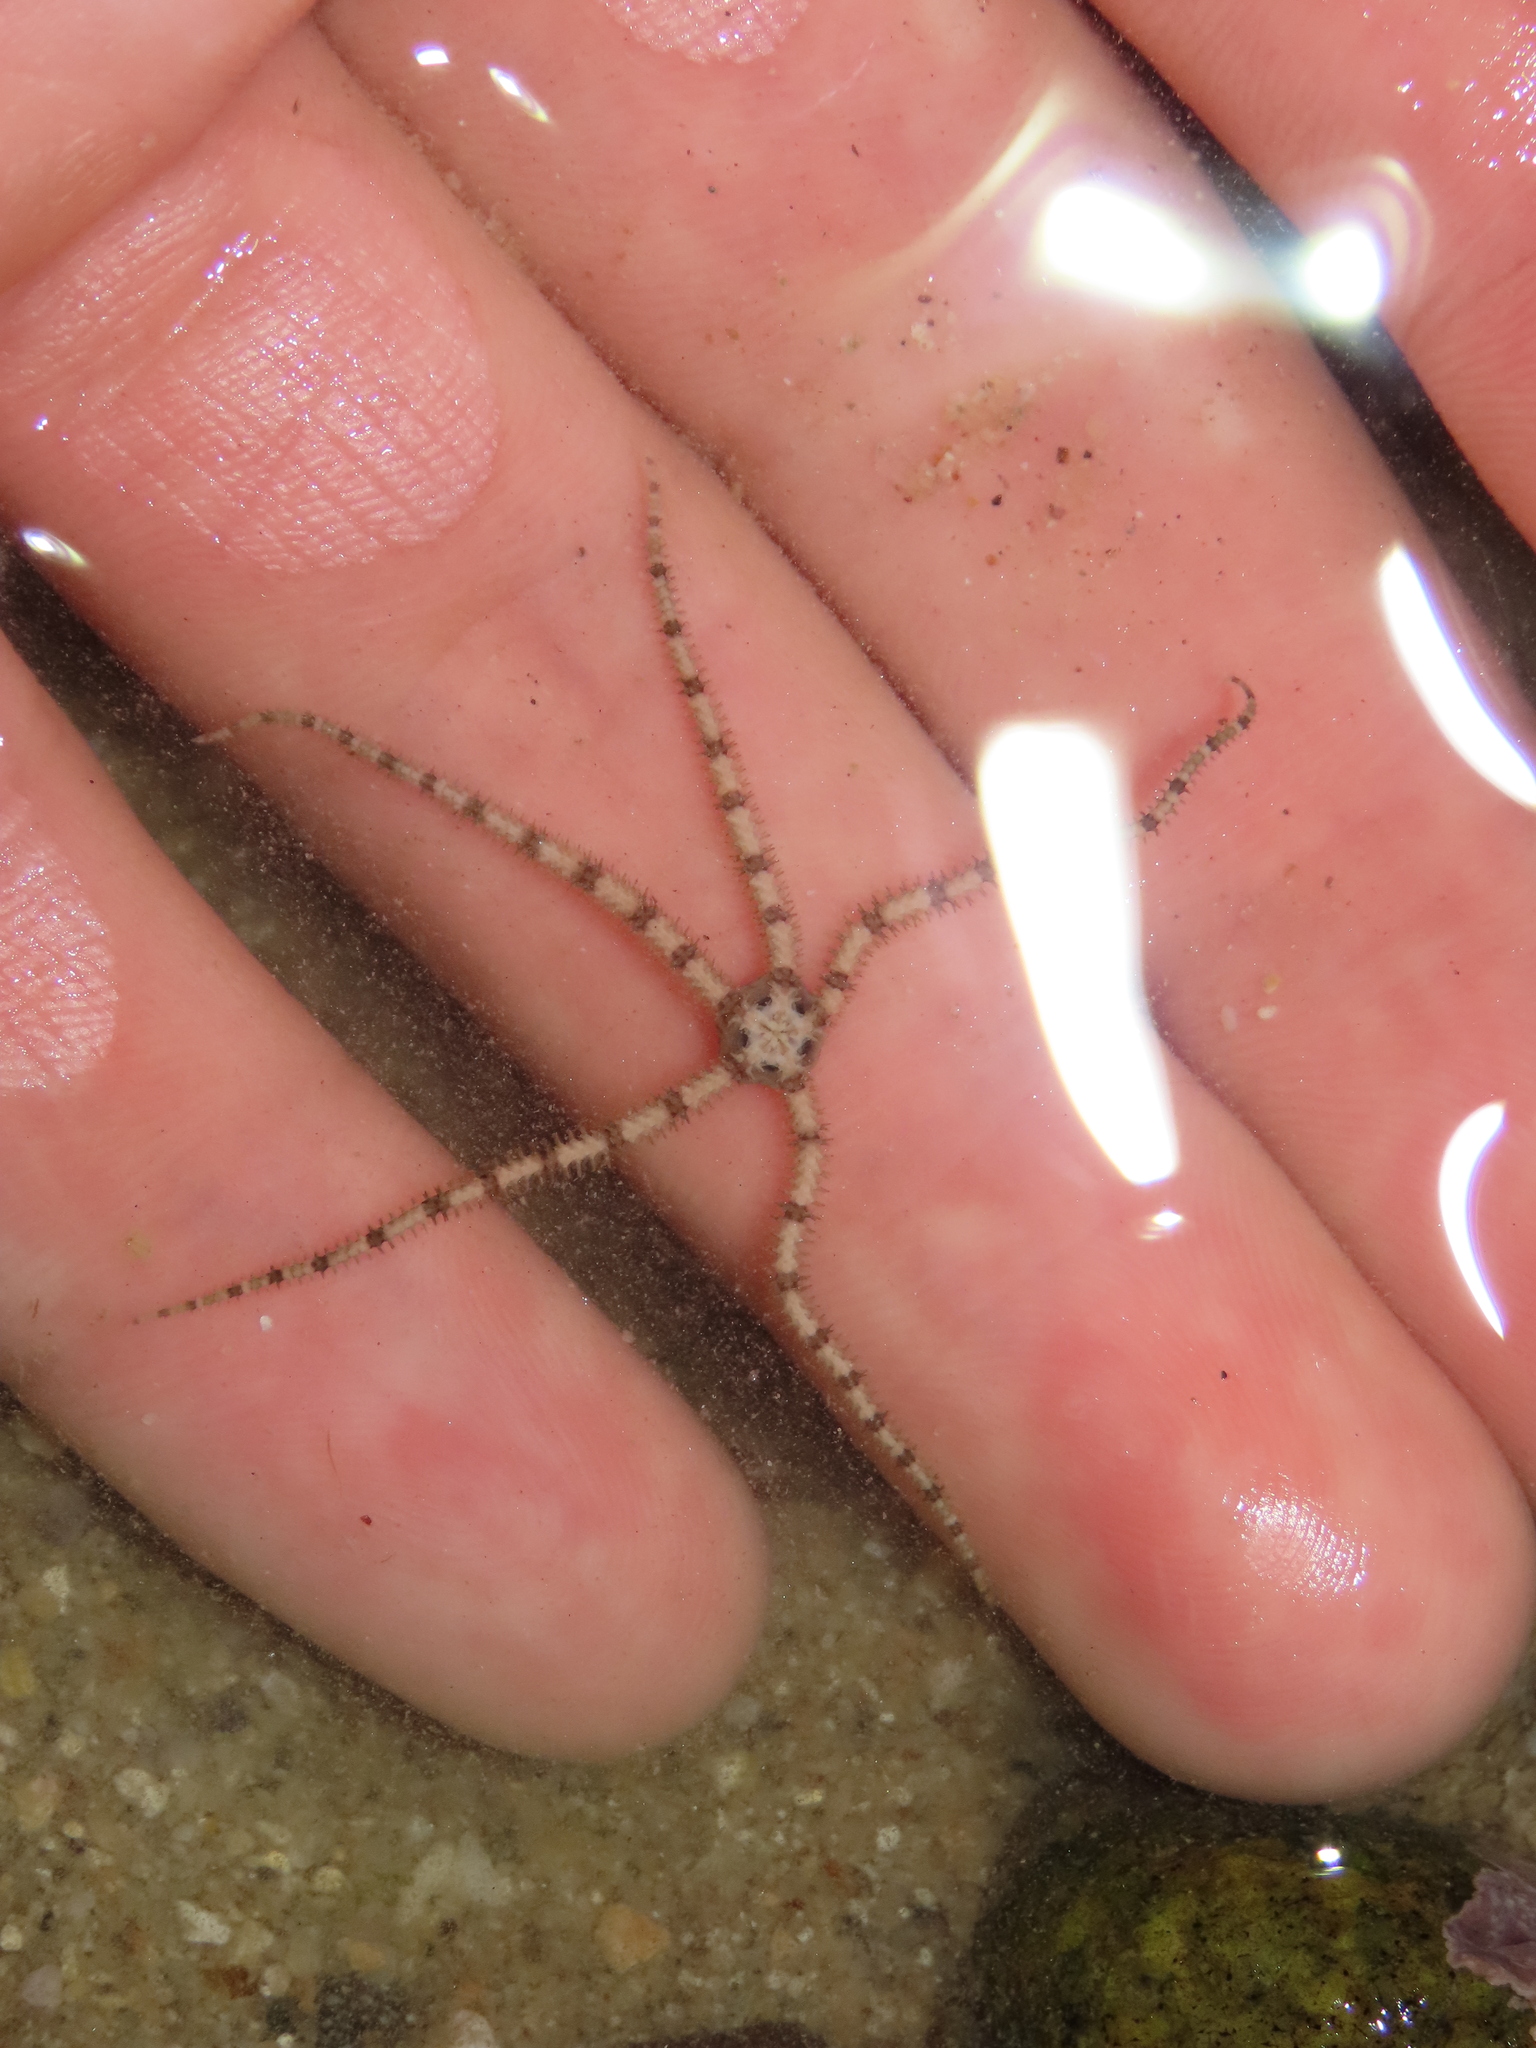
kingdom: Animalia
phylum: Echinodermata
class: Ophiuroidea
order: Amphilepidida
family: Ophionereididae
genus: Ophionereis
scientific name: Ophionereis annulata
